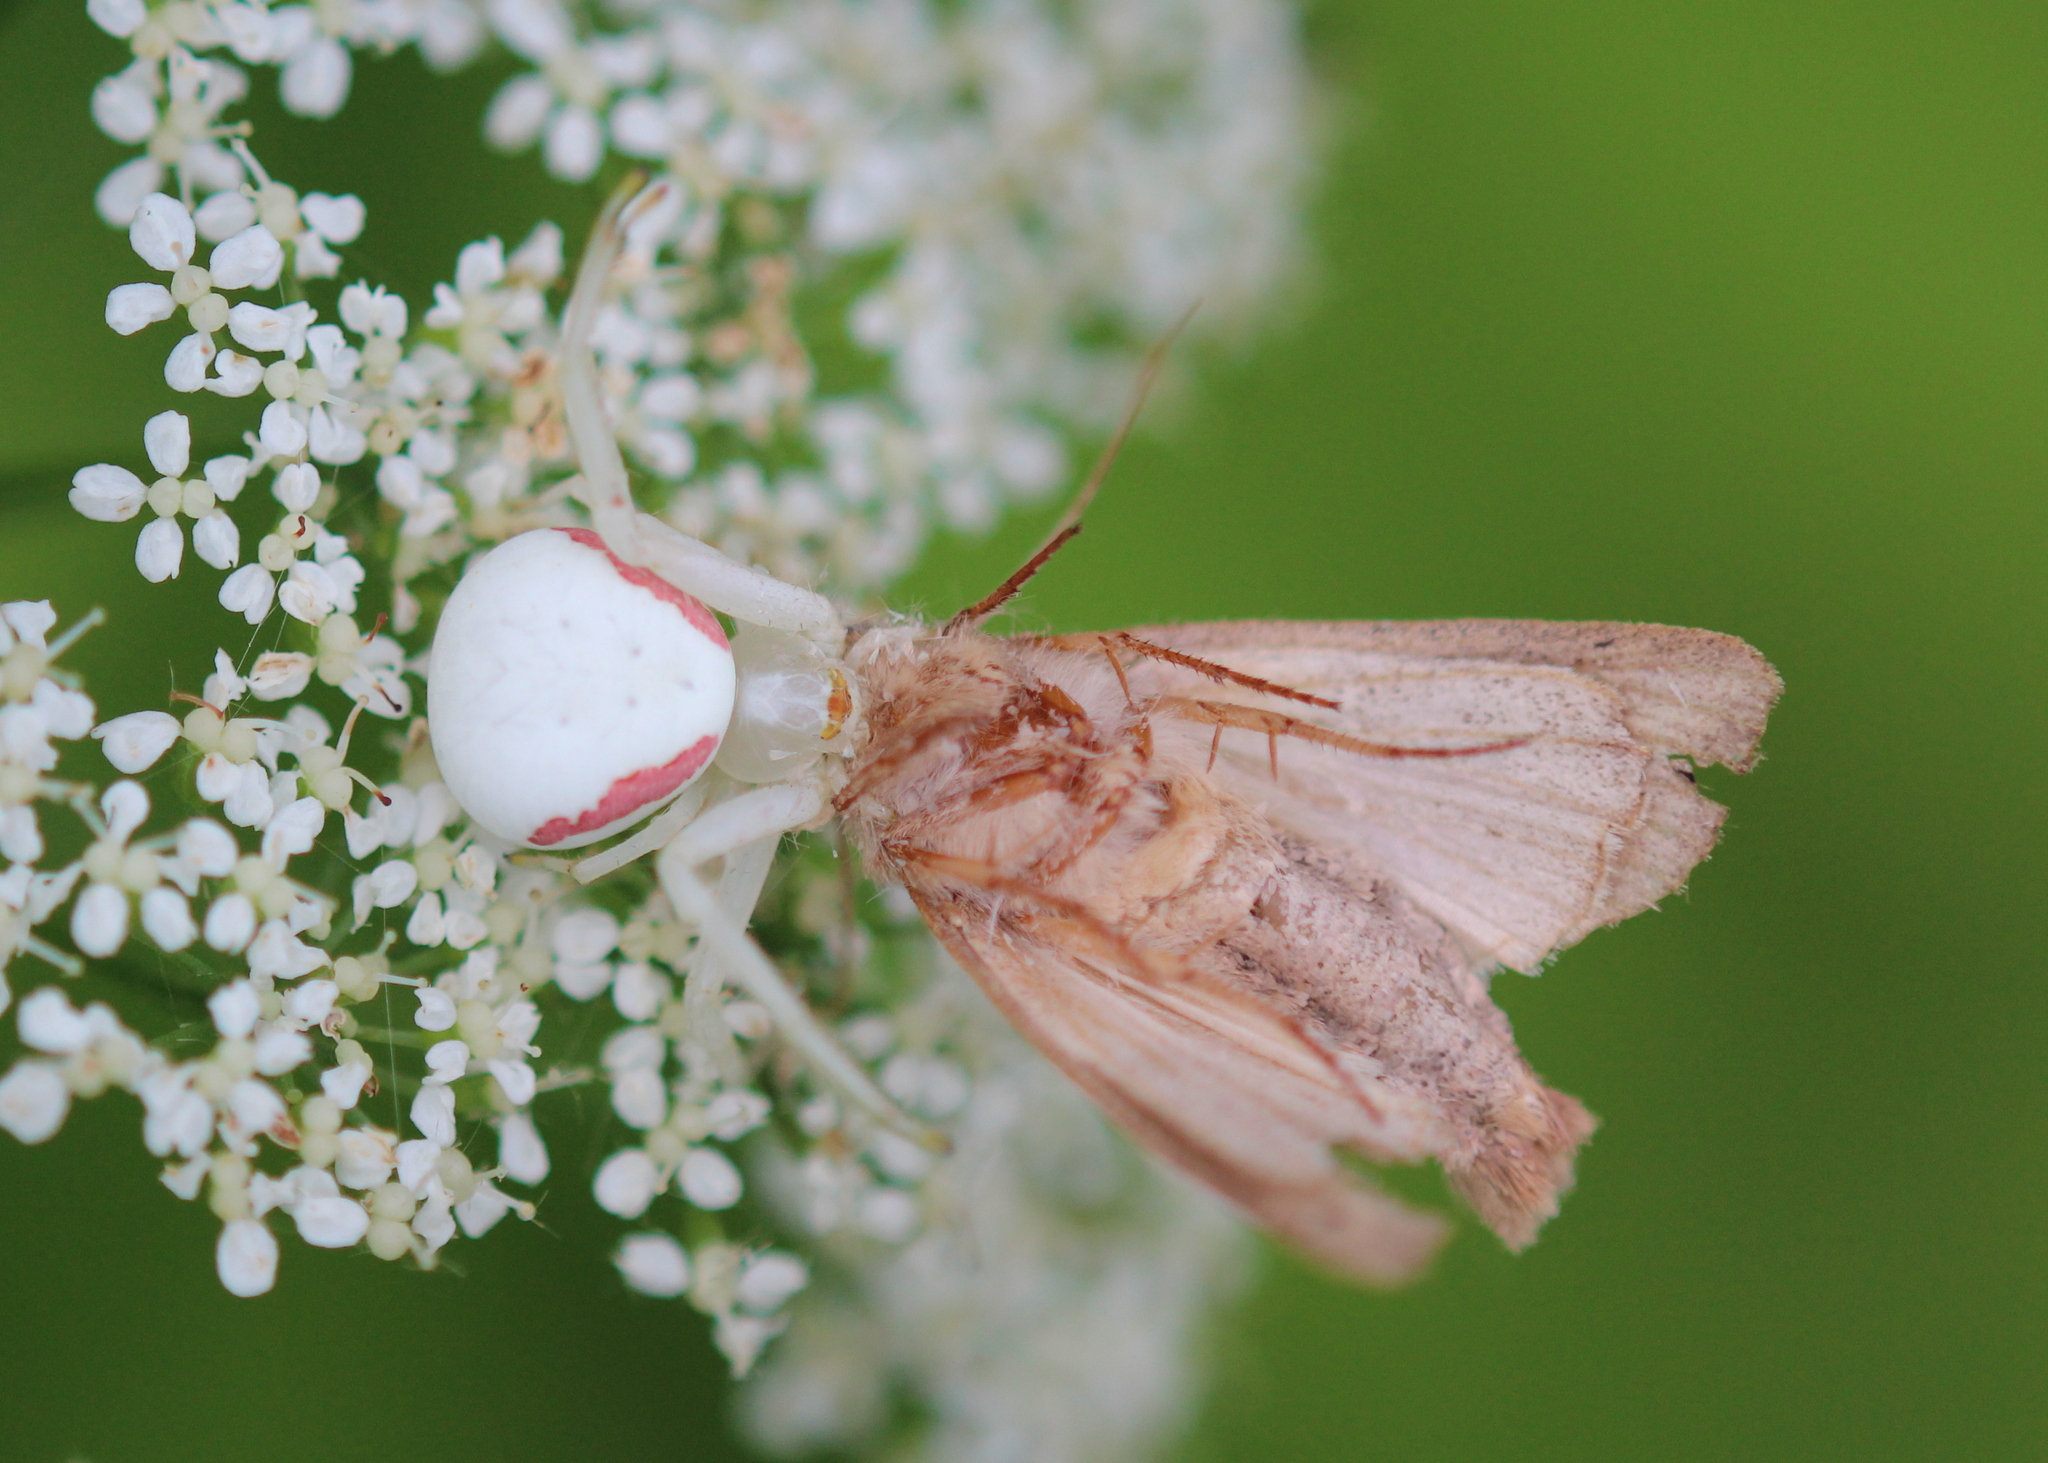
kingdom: Animalia
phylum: Arthropoda
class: Arachnida
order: Araneae
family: Thomisidae
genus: Misumena
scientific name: Misumena vatia
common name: Goldenrod crab spider
